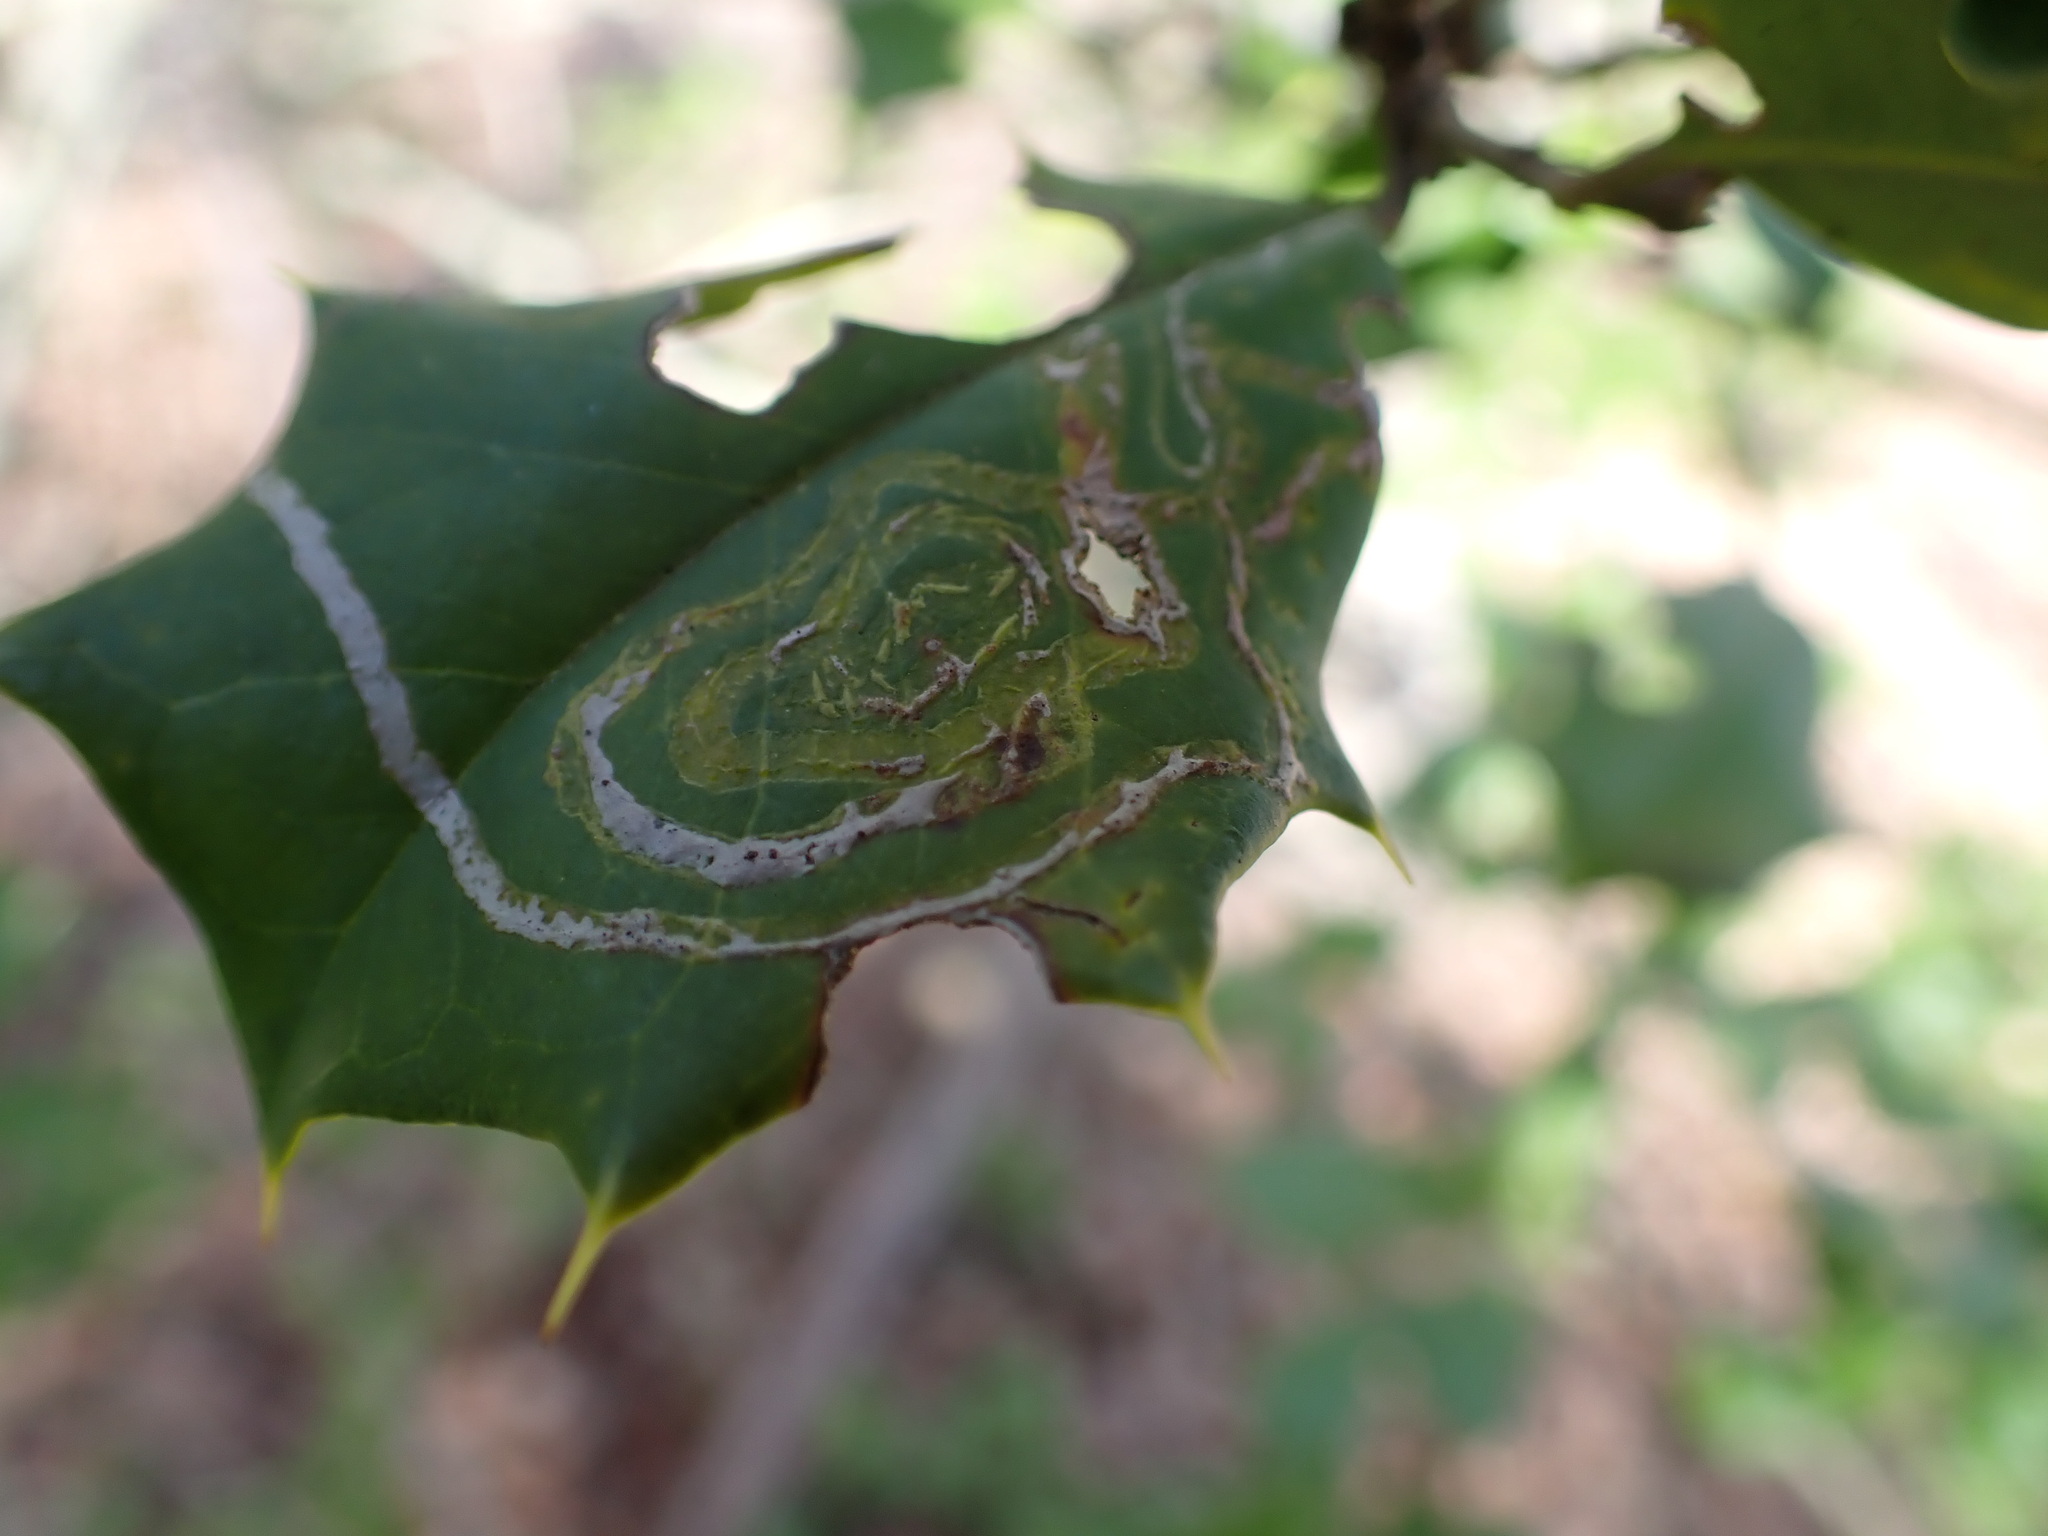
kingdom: Animalia
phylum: Arthropoda
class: Insecta
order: Diptera
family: Agromyzidae
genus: Phytomyza
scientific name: Phytomyza opacae
